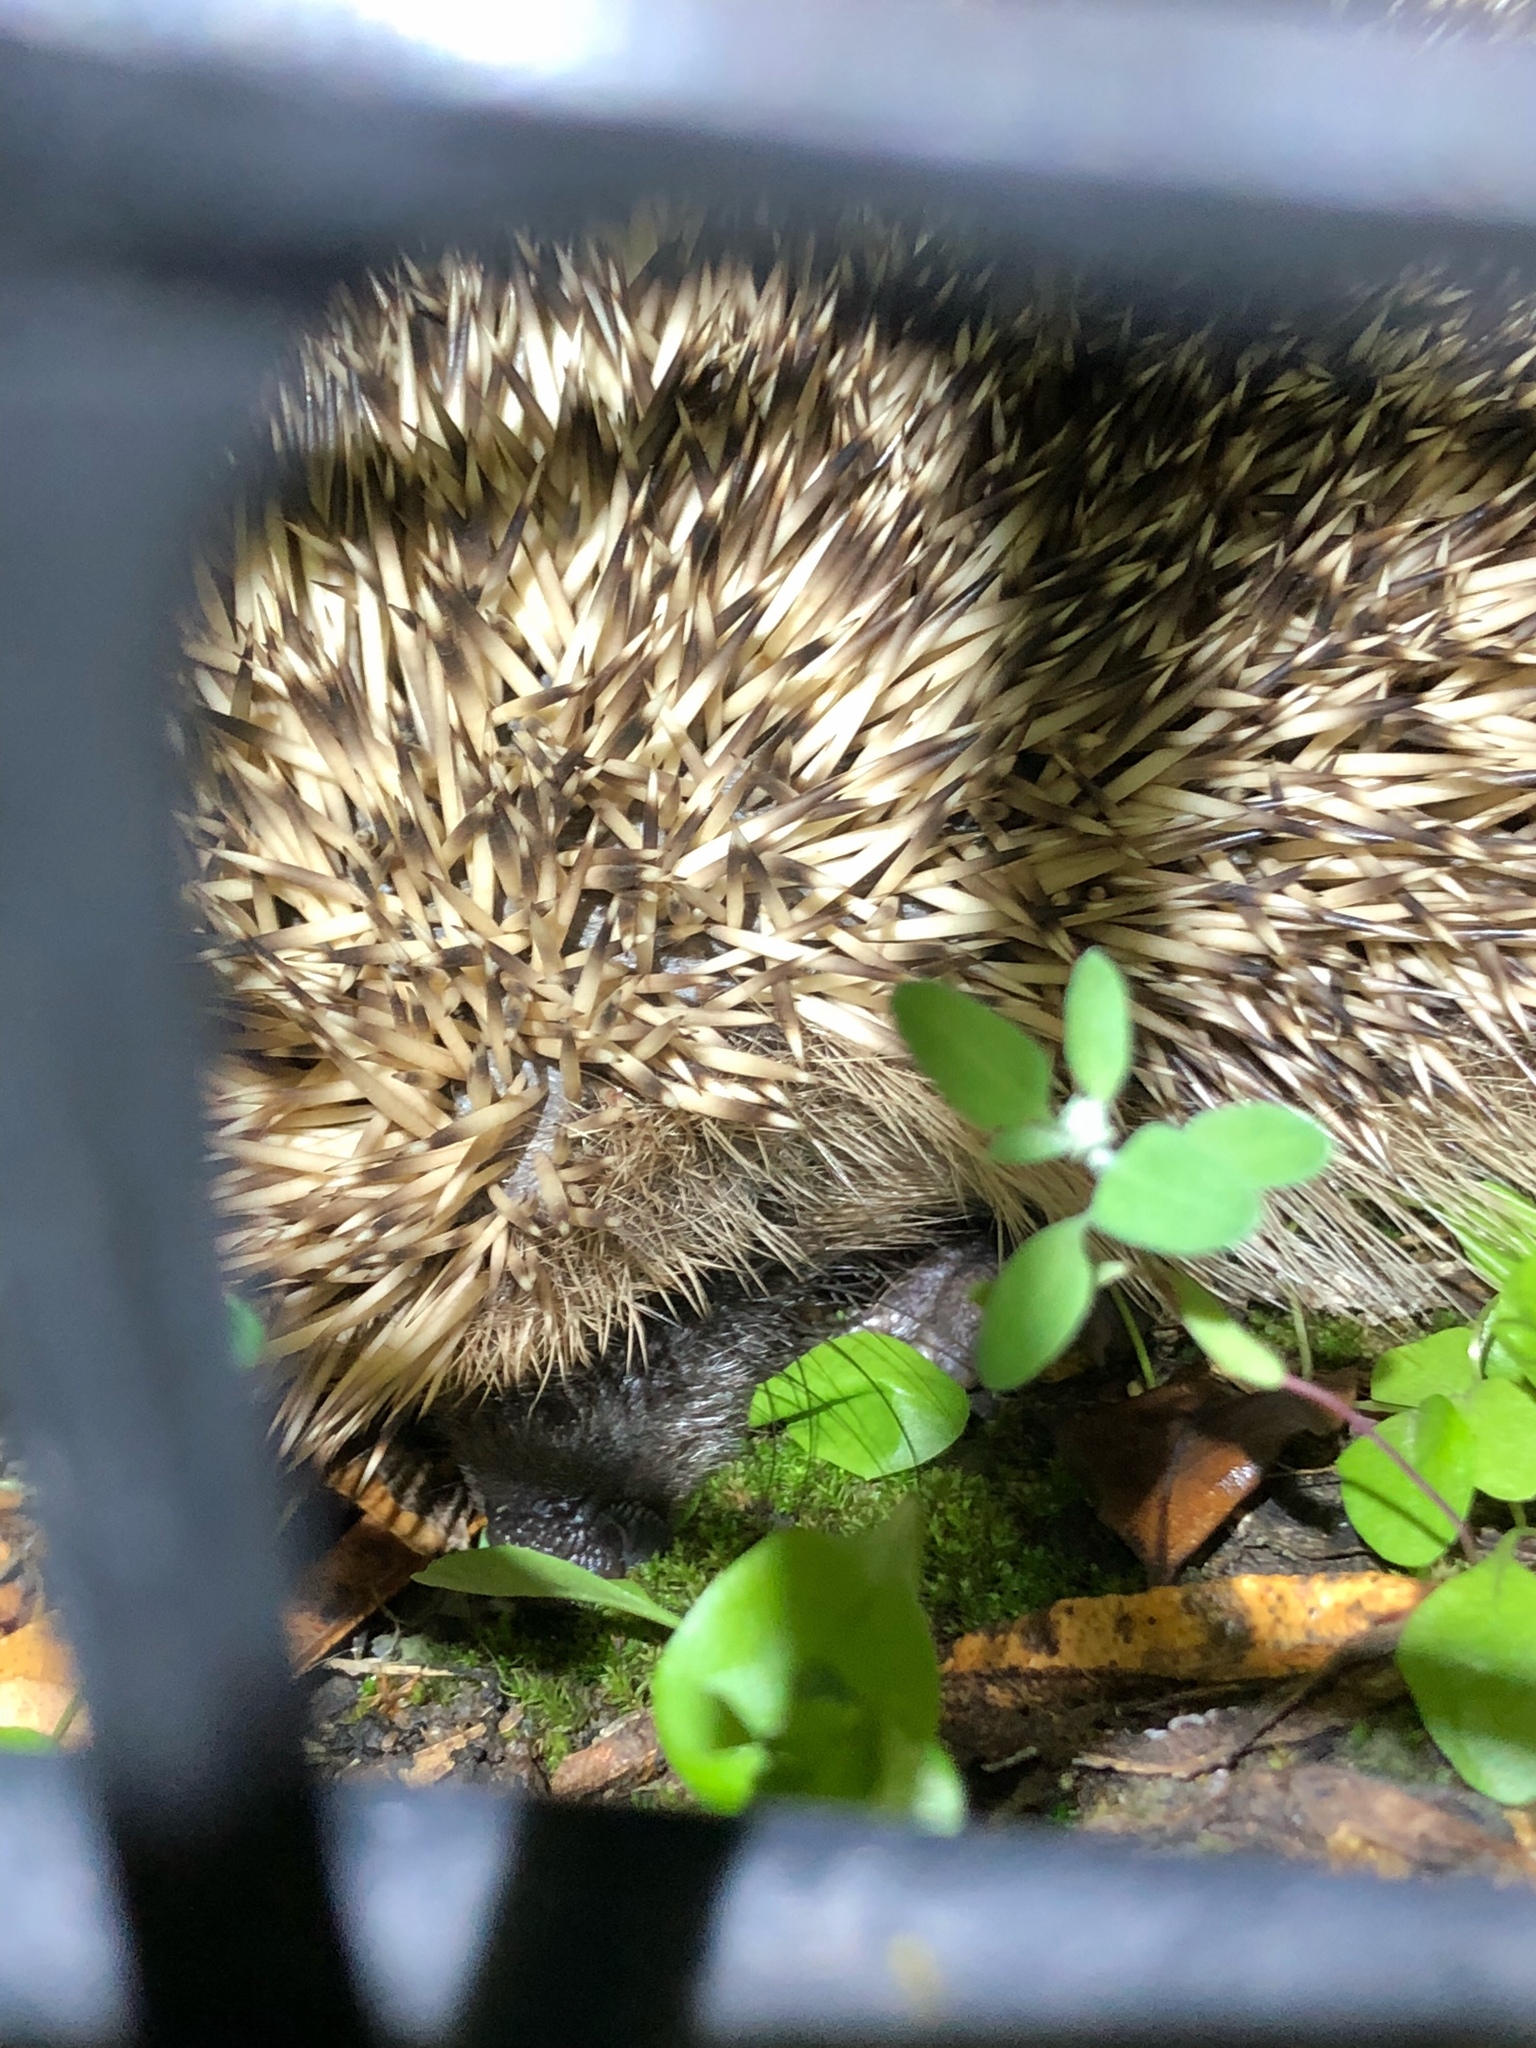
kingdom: Animalia
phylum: Chordata
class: Mammalia
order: Erinaceomorpha
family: Erinaceidae
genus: Erinaceus
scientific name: Erinaceus europaeus
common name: West european hedgehog
